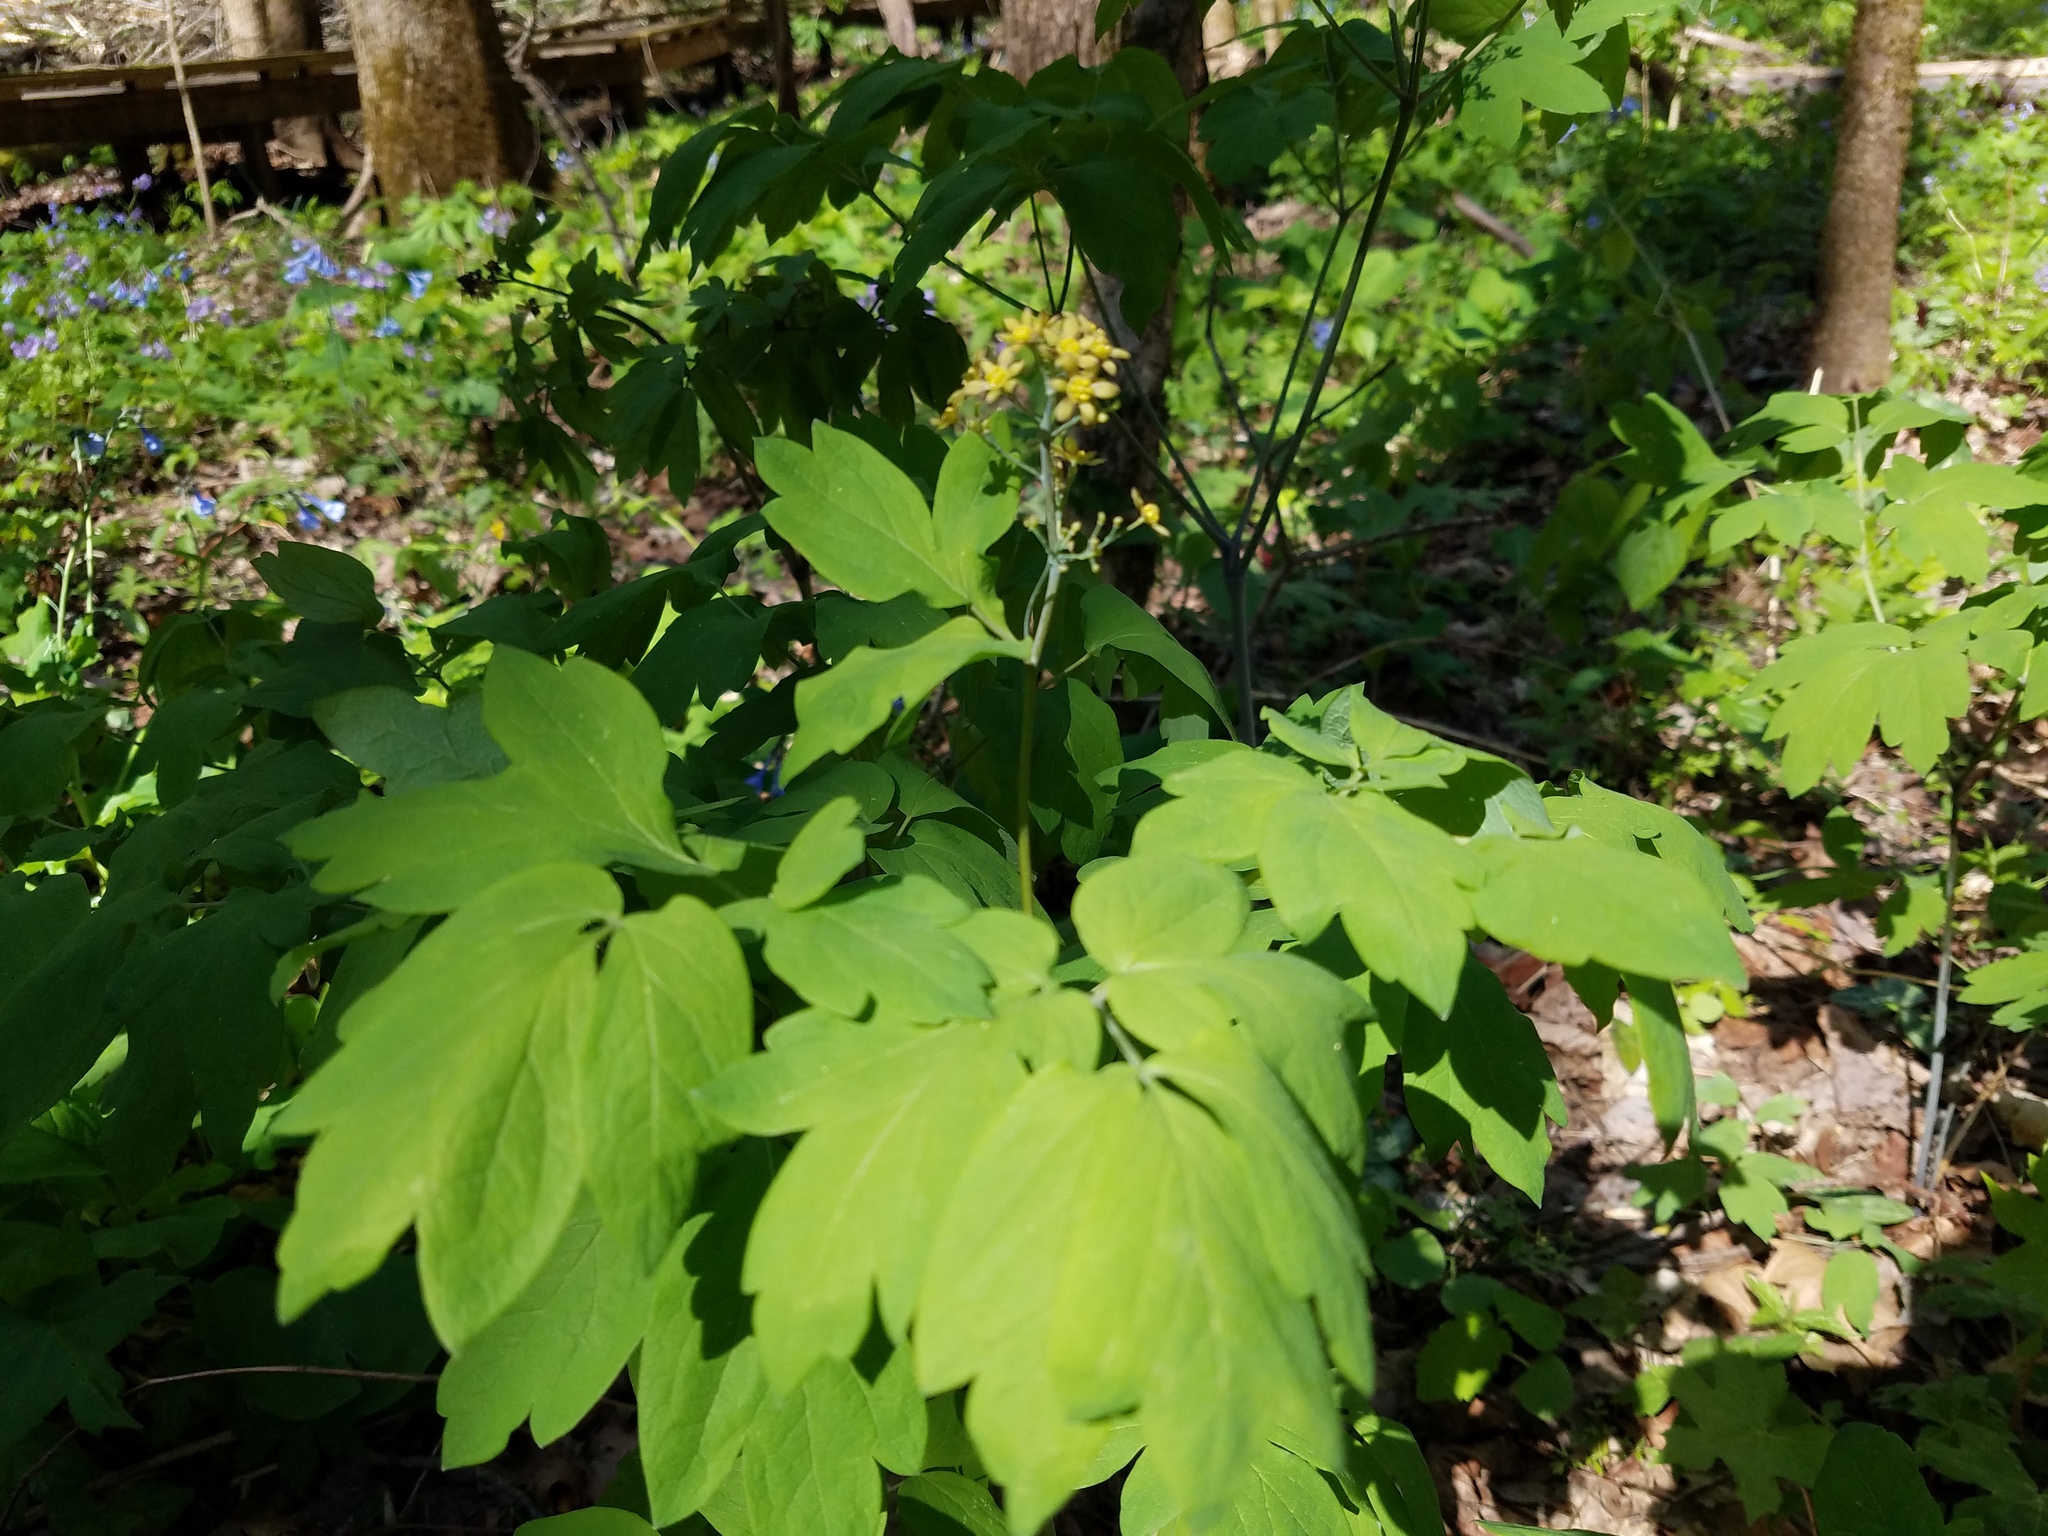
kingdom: Plantae
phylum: Tracheophyta
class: Magnoliopsida
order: Ranunculales
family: Berberidaceae
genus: Caulophyllum
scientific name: Caulophyllum thalictroides
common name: Blue cohosh
